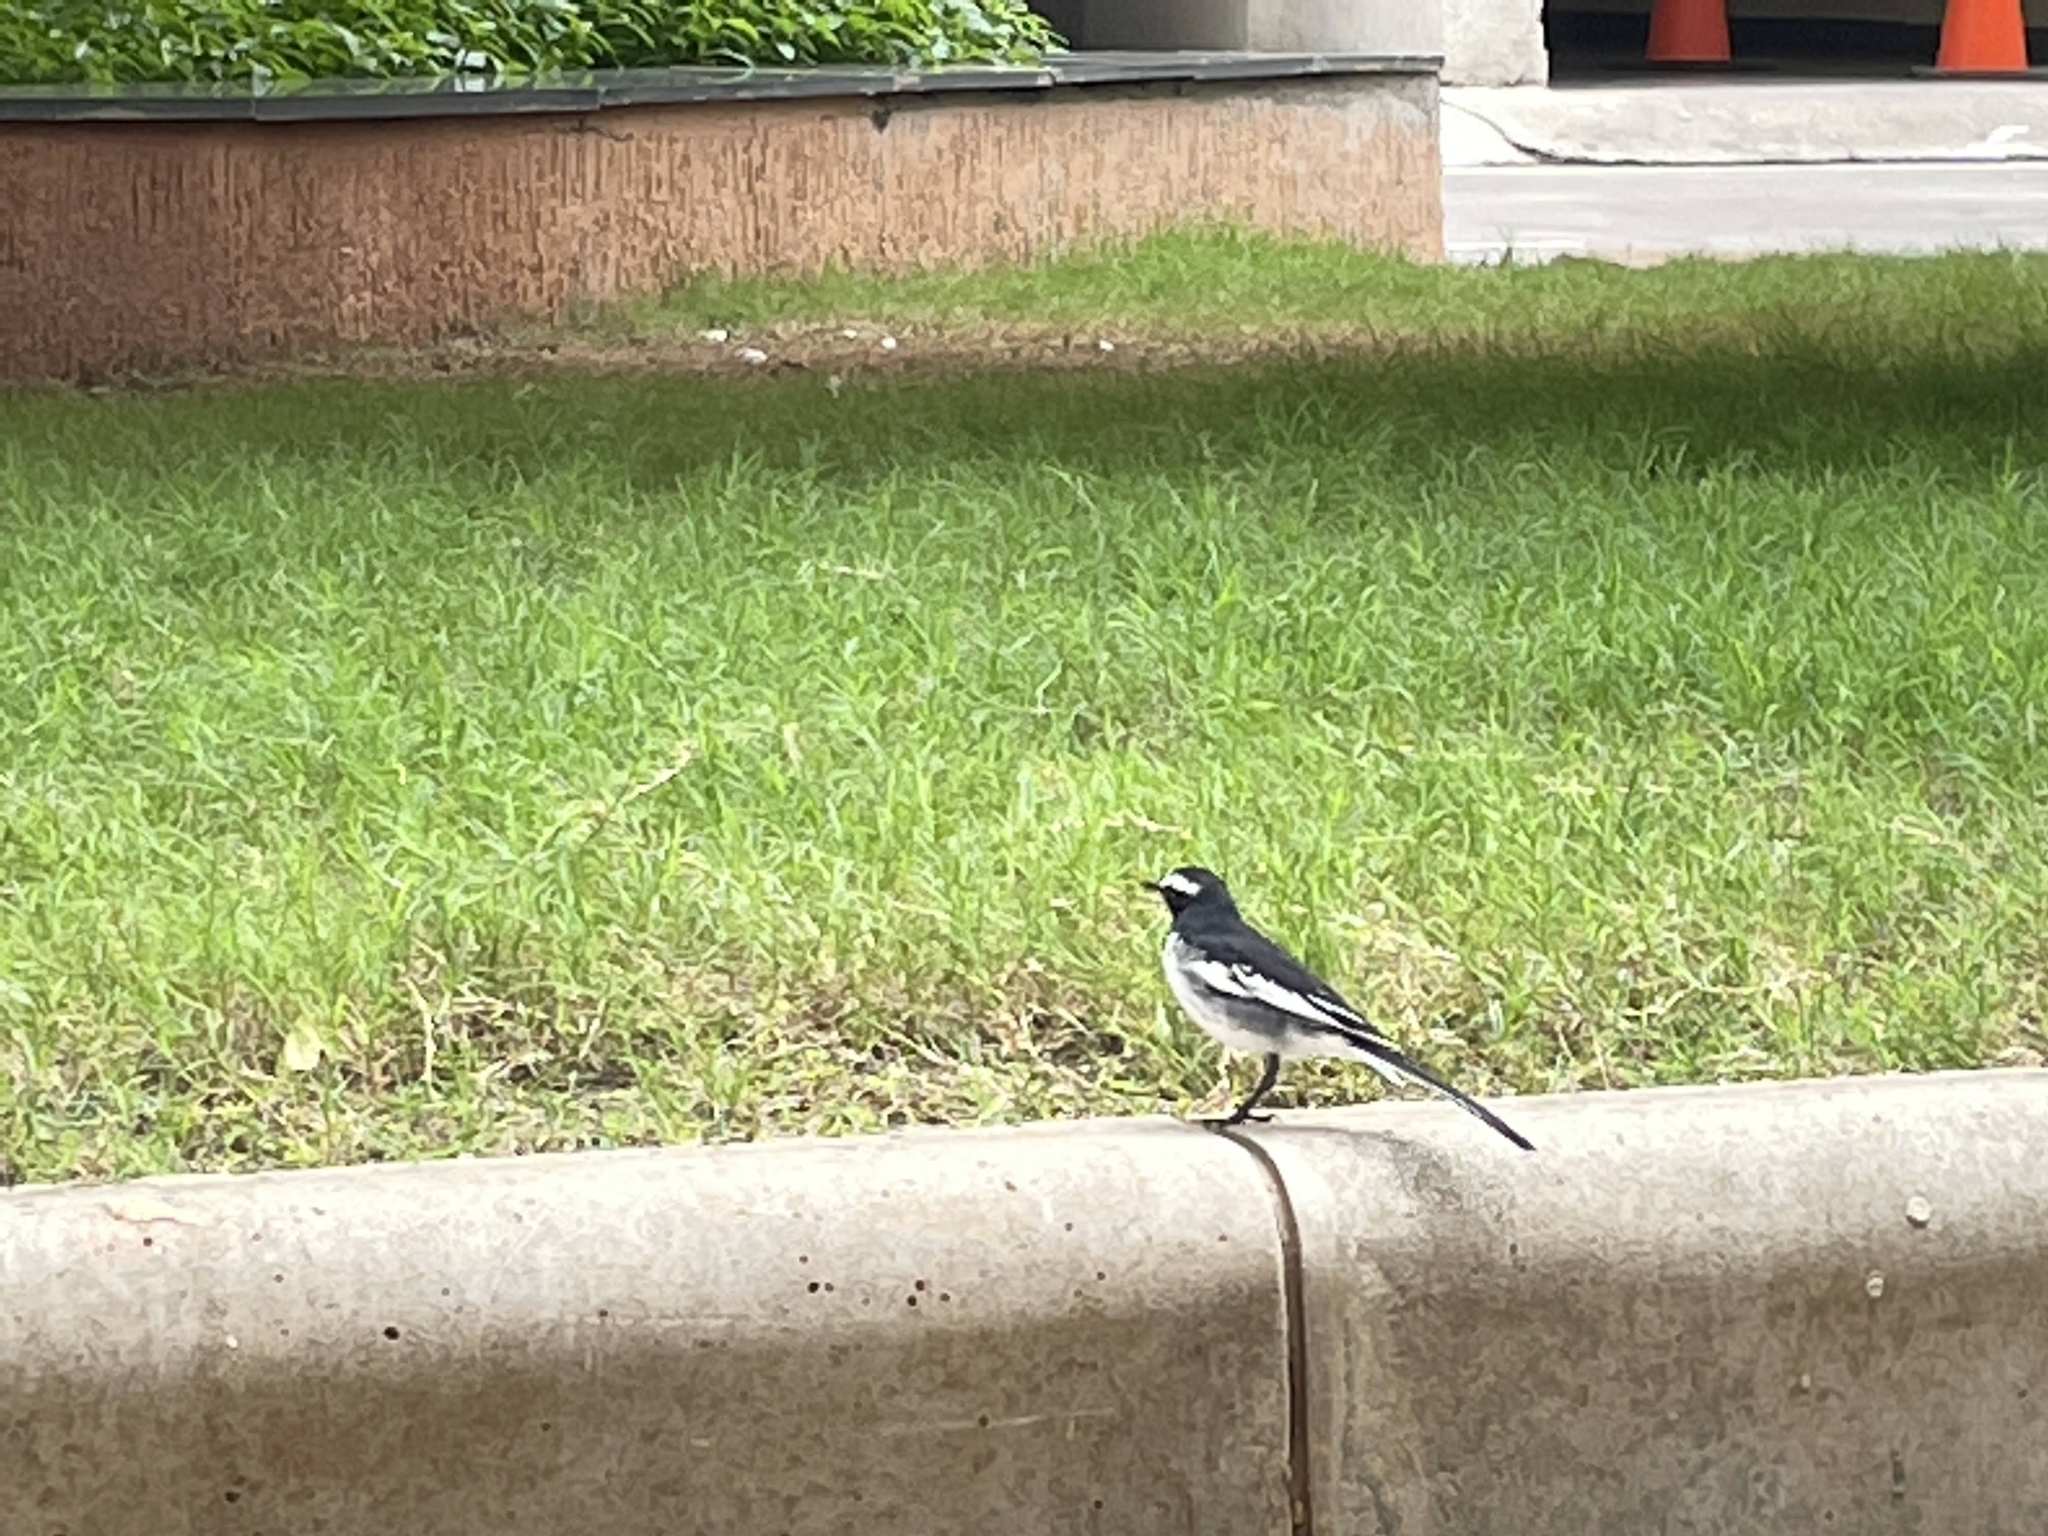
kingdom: Animalia
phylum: Chordata
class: Aves
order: Passeriformes
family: Motacillidae
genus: Motacilla
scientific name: Motacilla maderaspatensis
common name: White-browed wagtail
